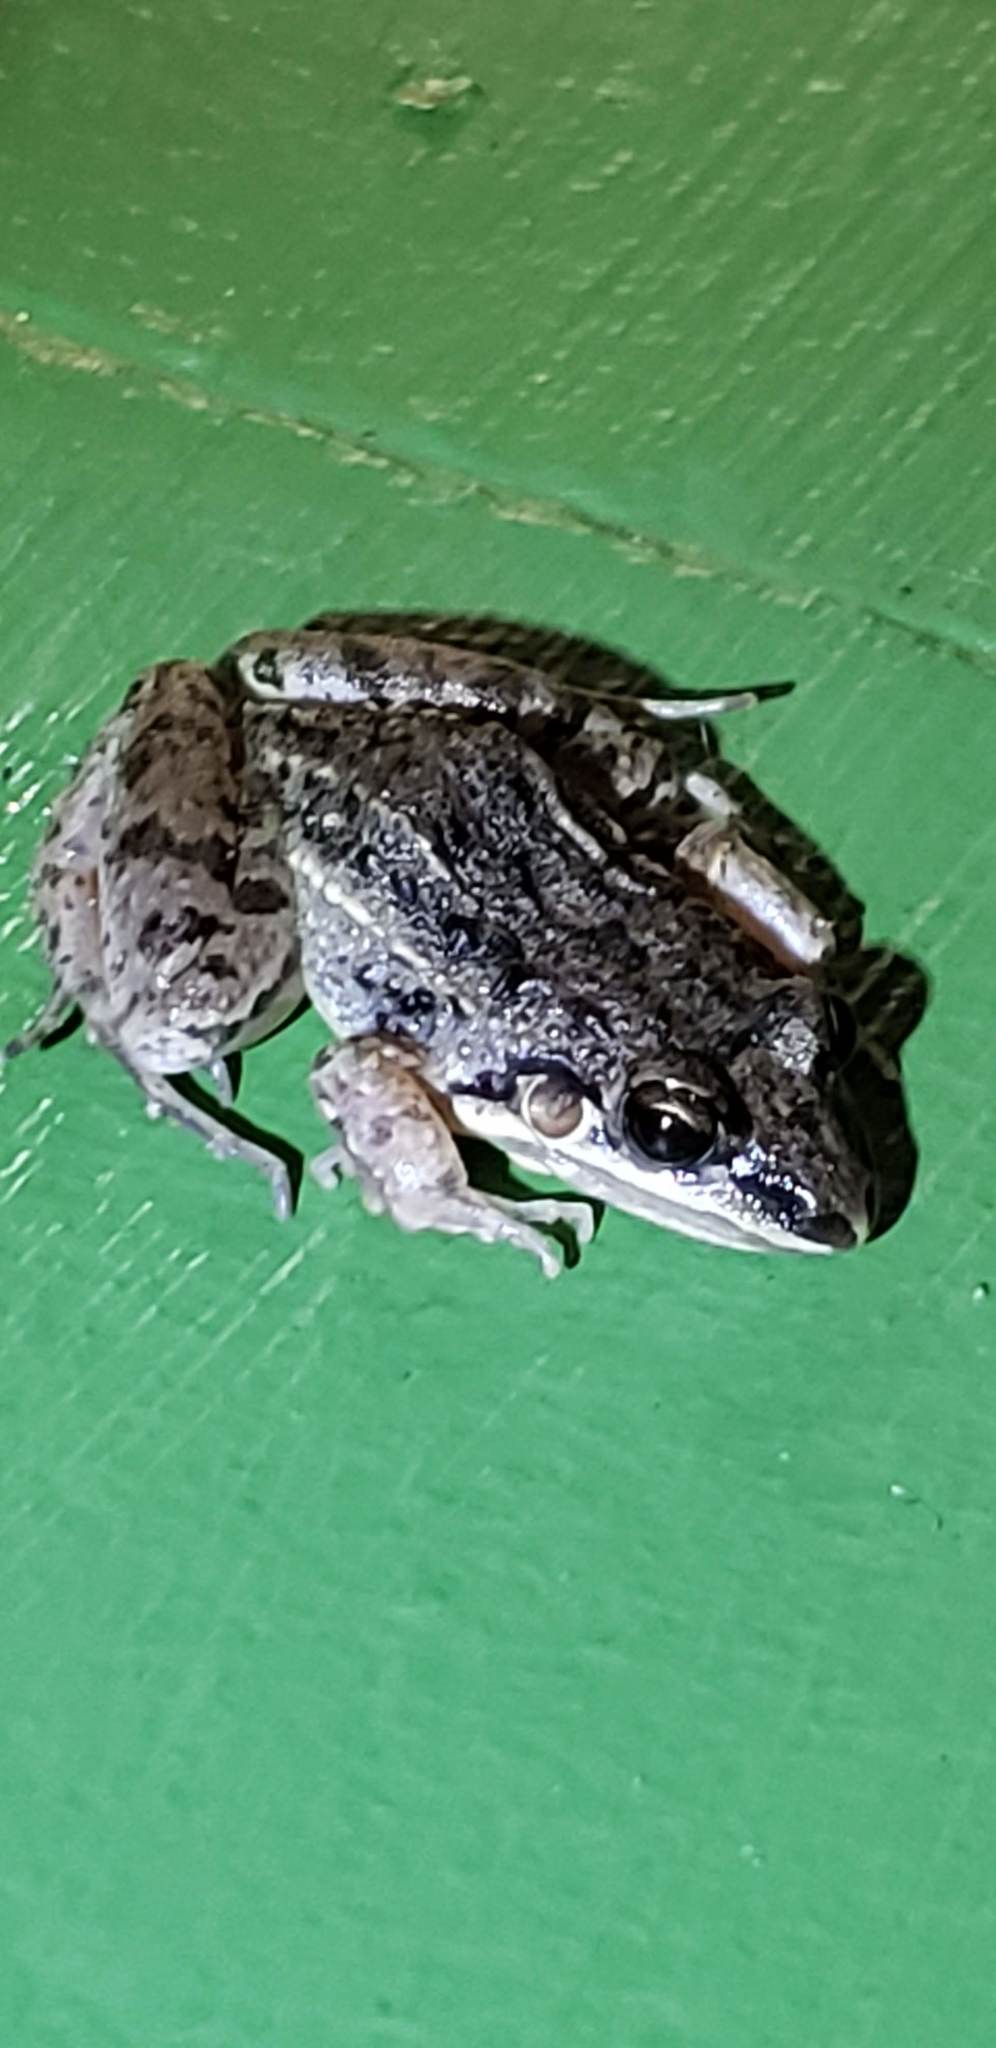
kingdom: Animalia
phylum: Chordata
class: Amphibia
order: Anura
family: Leptodactylidae
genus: Leptodactylus
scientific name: Leptodactylus fragilis
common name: Mexican white-lipped frog
